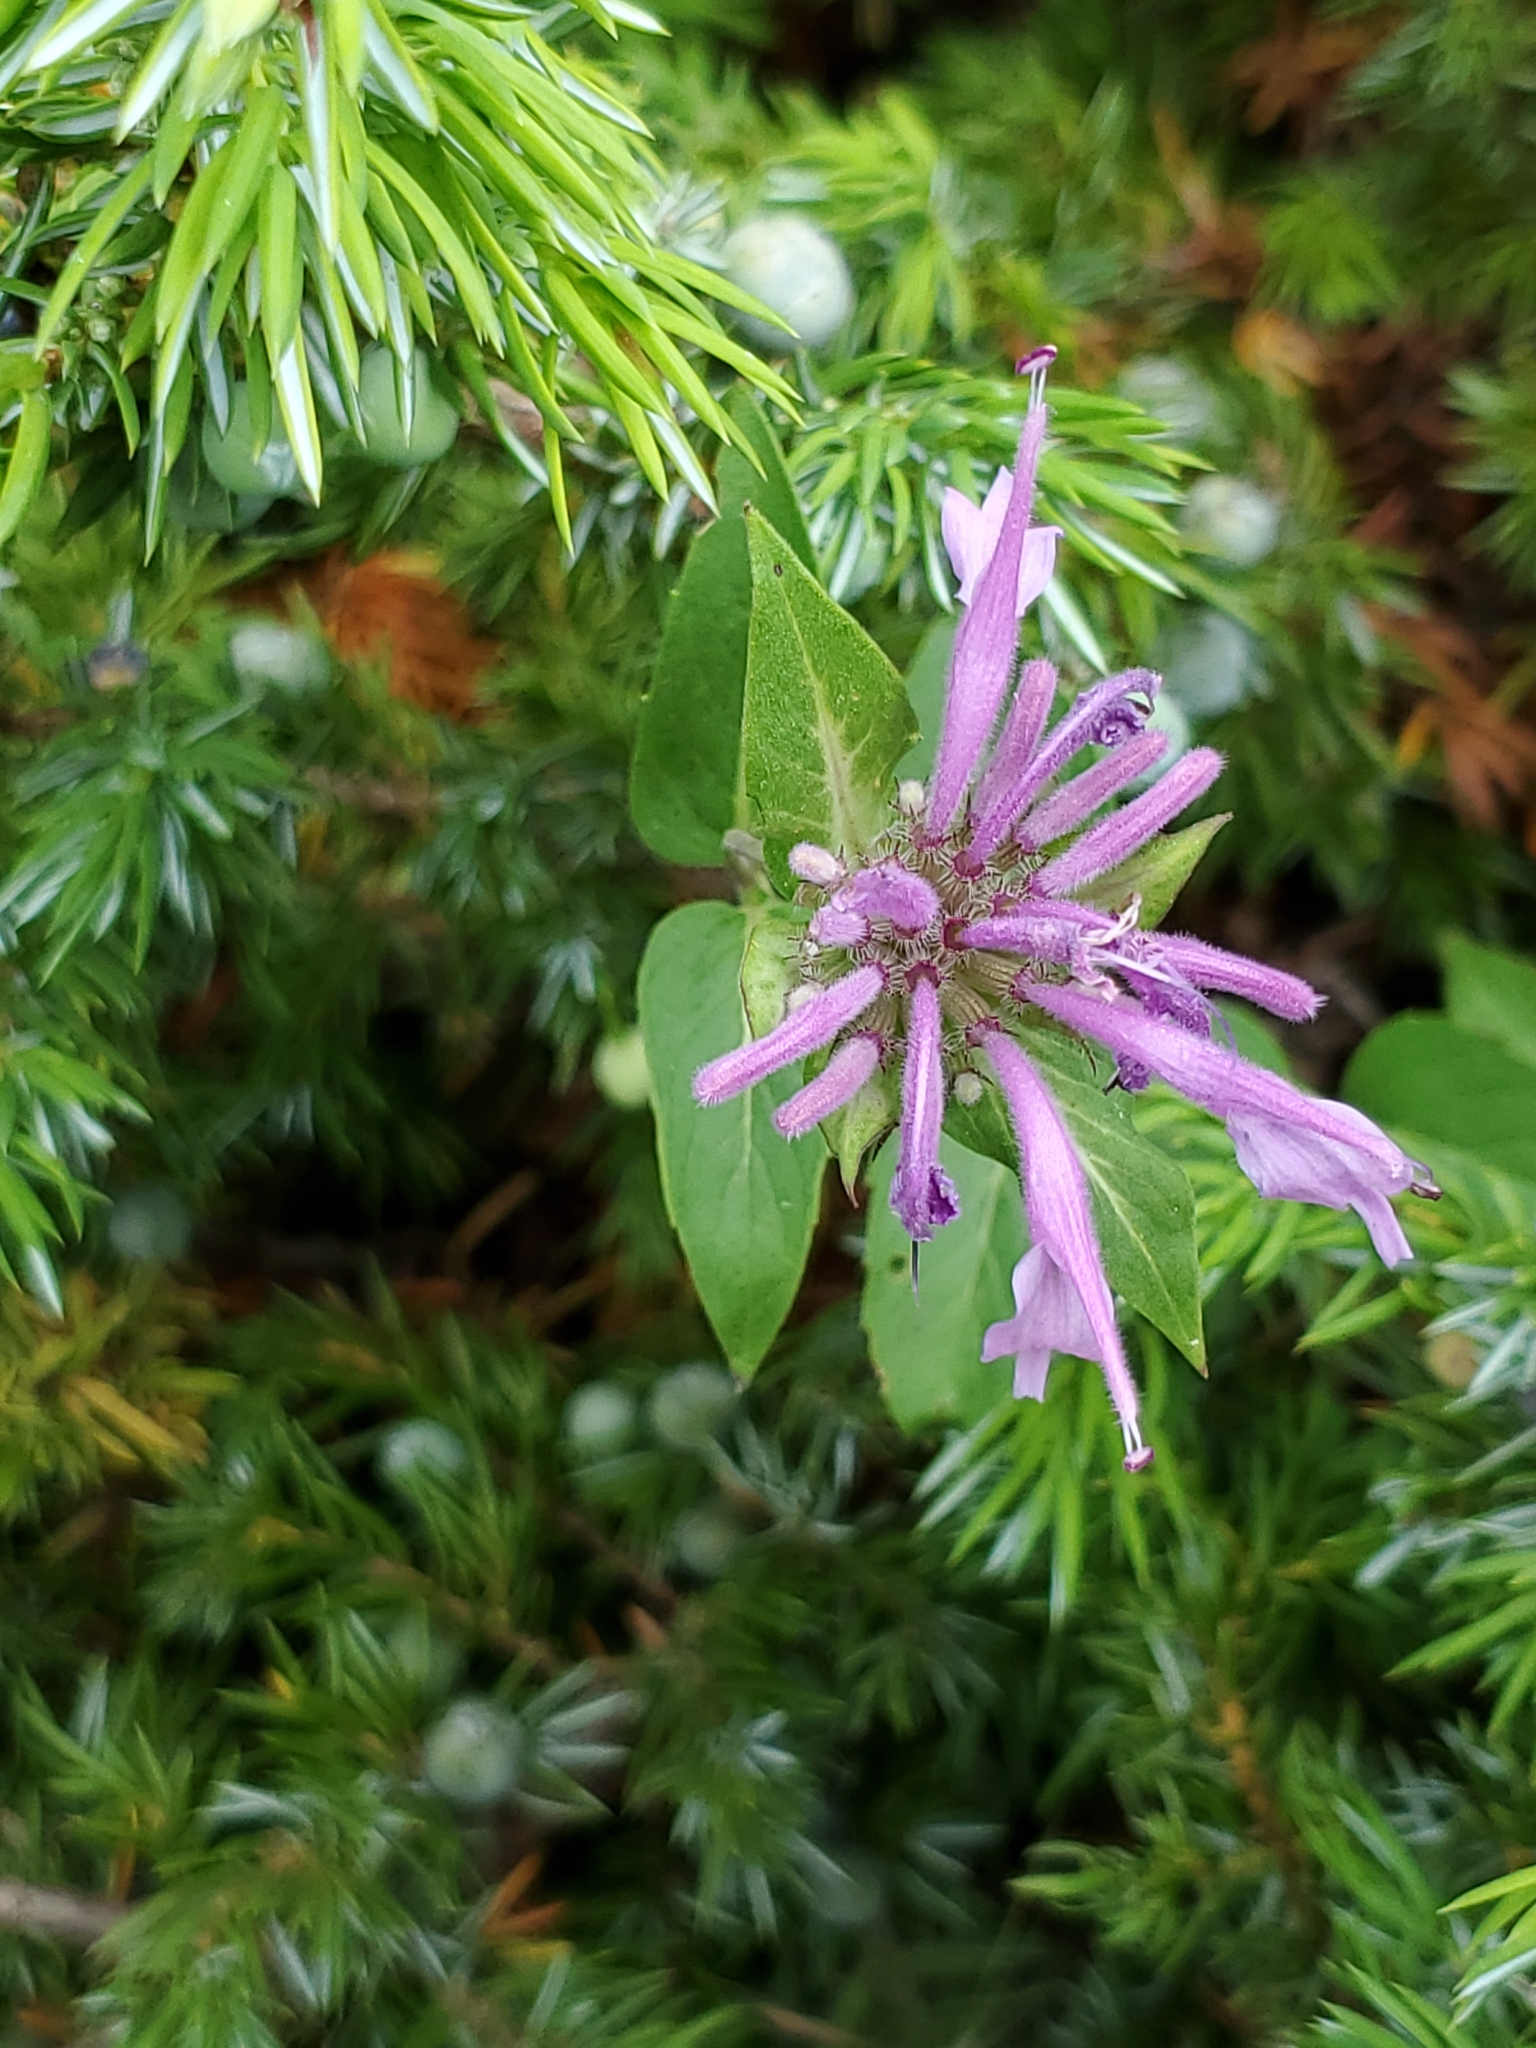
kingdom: Plantae
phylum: Tracheophyta
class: Magnoliopsida
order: Lamiales
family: Lamiaceae
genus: Monarda
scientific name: Monarda fistulosa
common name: Purple beebalm
